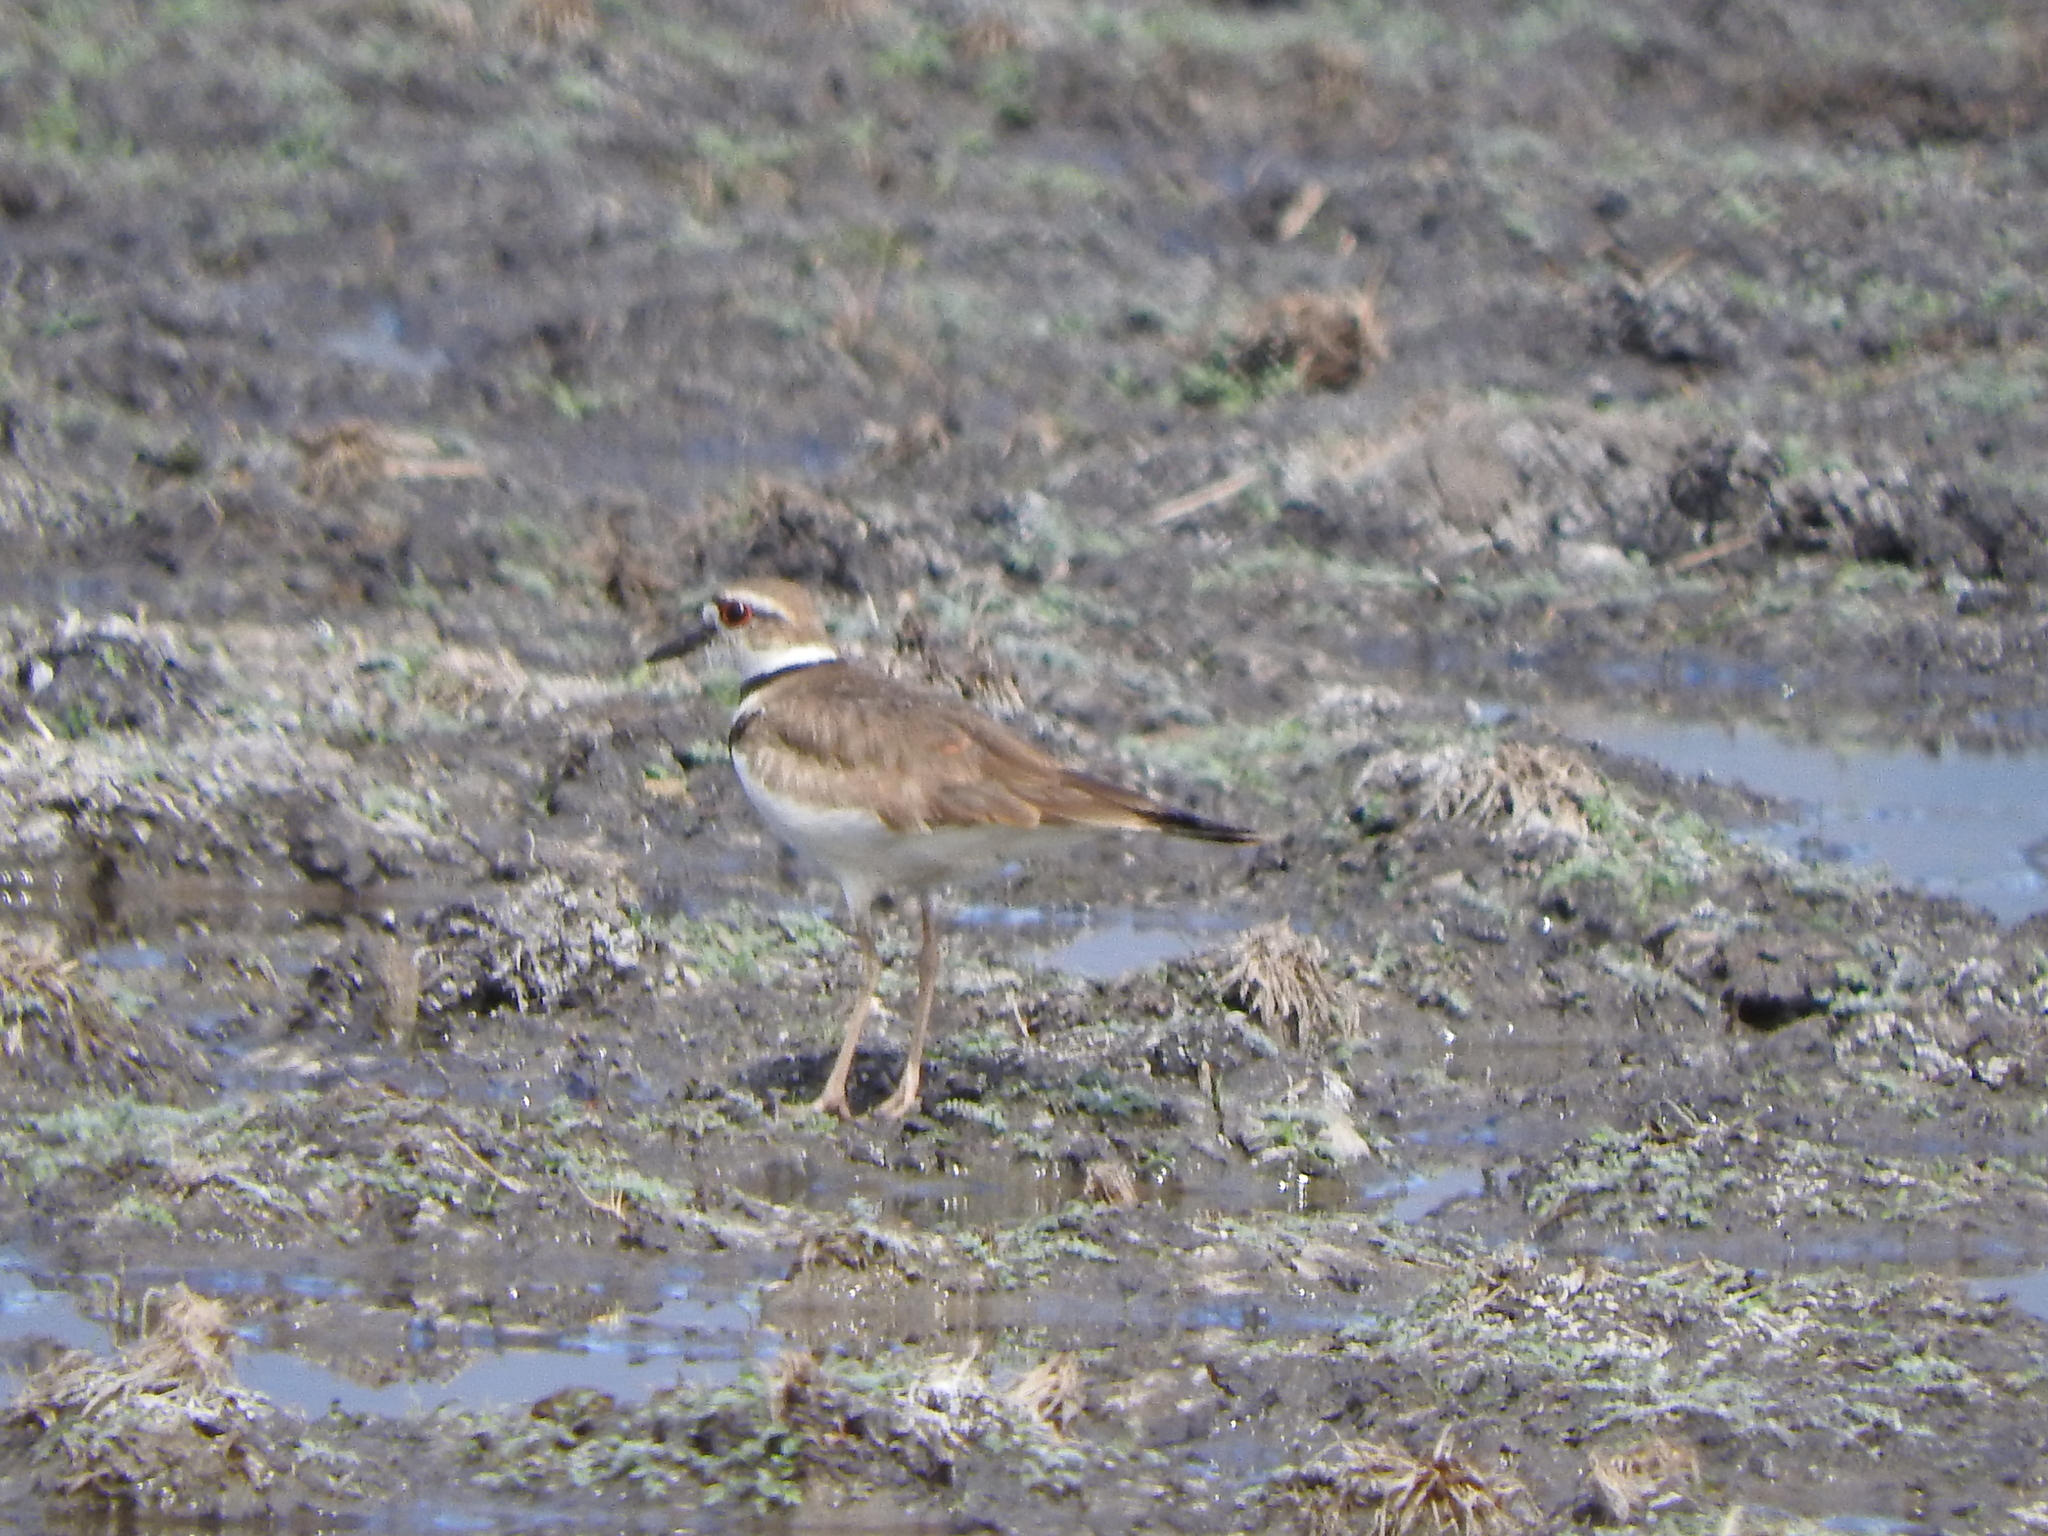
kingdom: Animalia
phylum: Chordata
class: Aves
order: Charadriiformes
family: Charadriidae
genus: Charadrius
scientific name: Charadrius vociferus
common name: Killdeer
